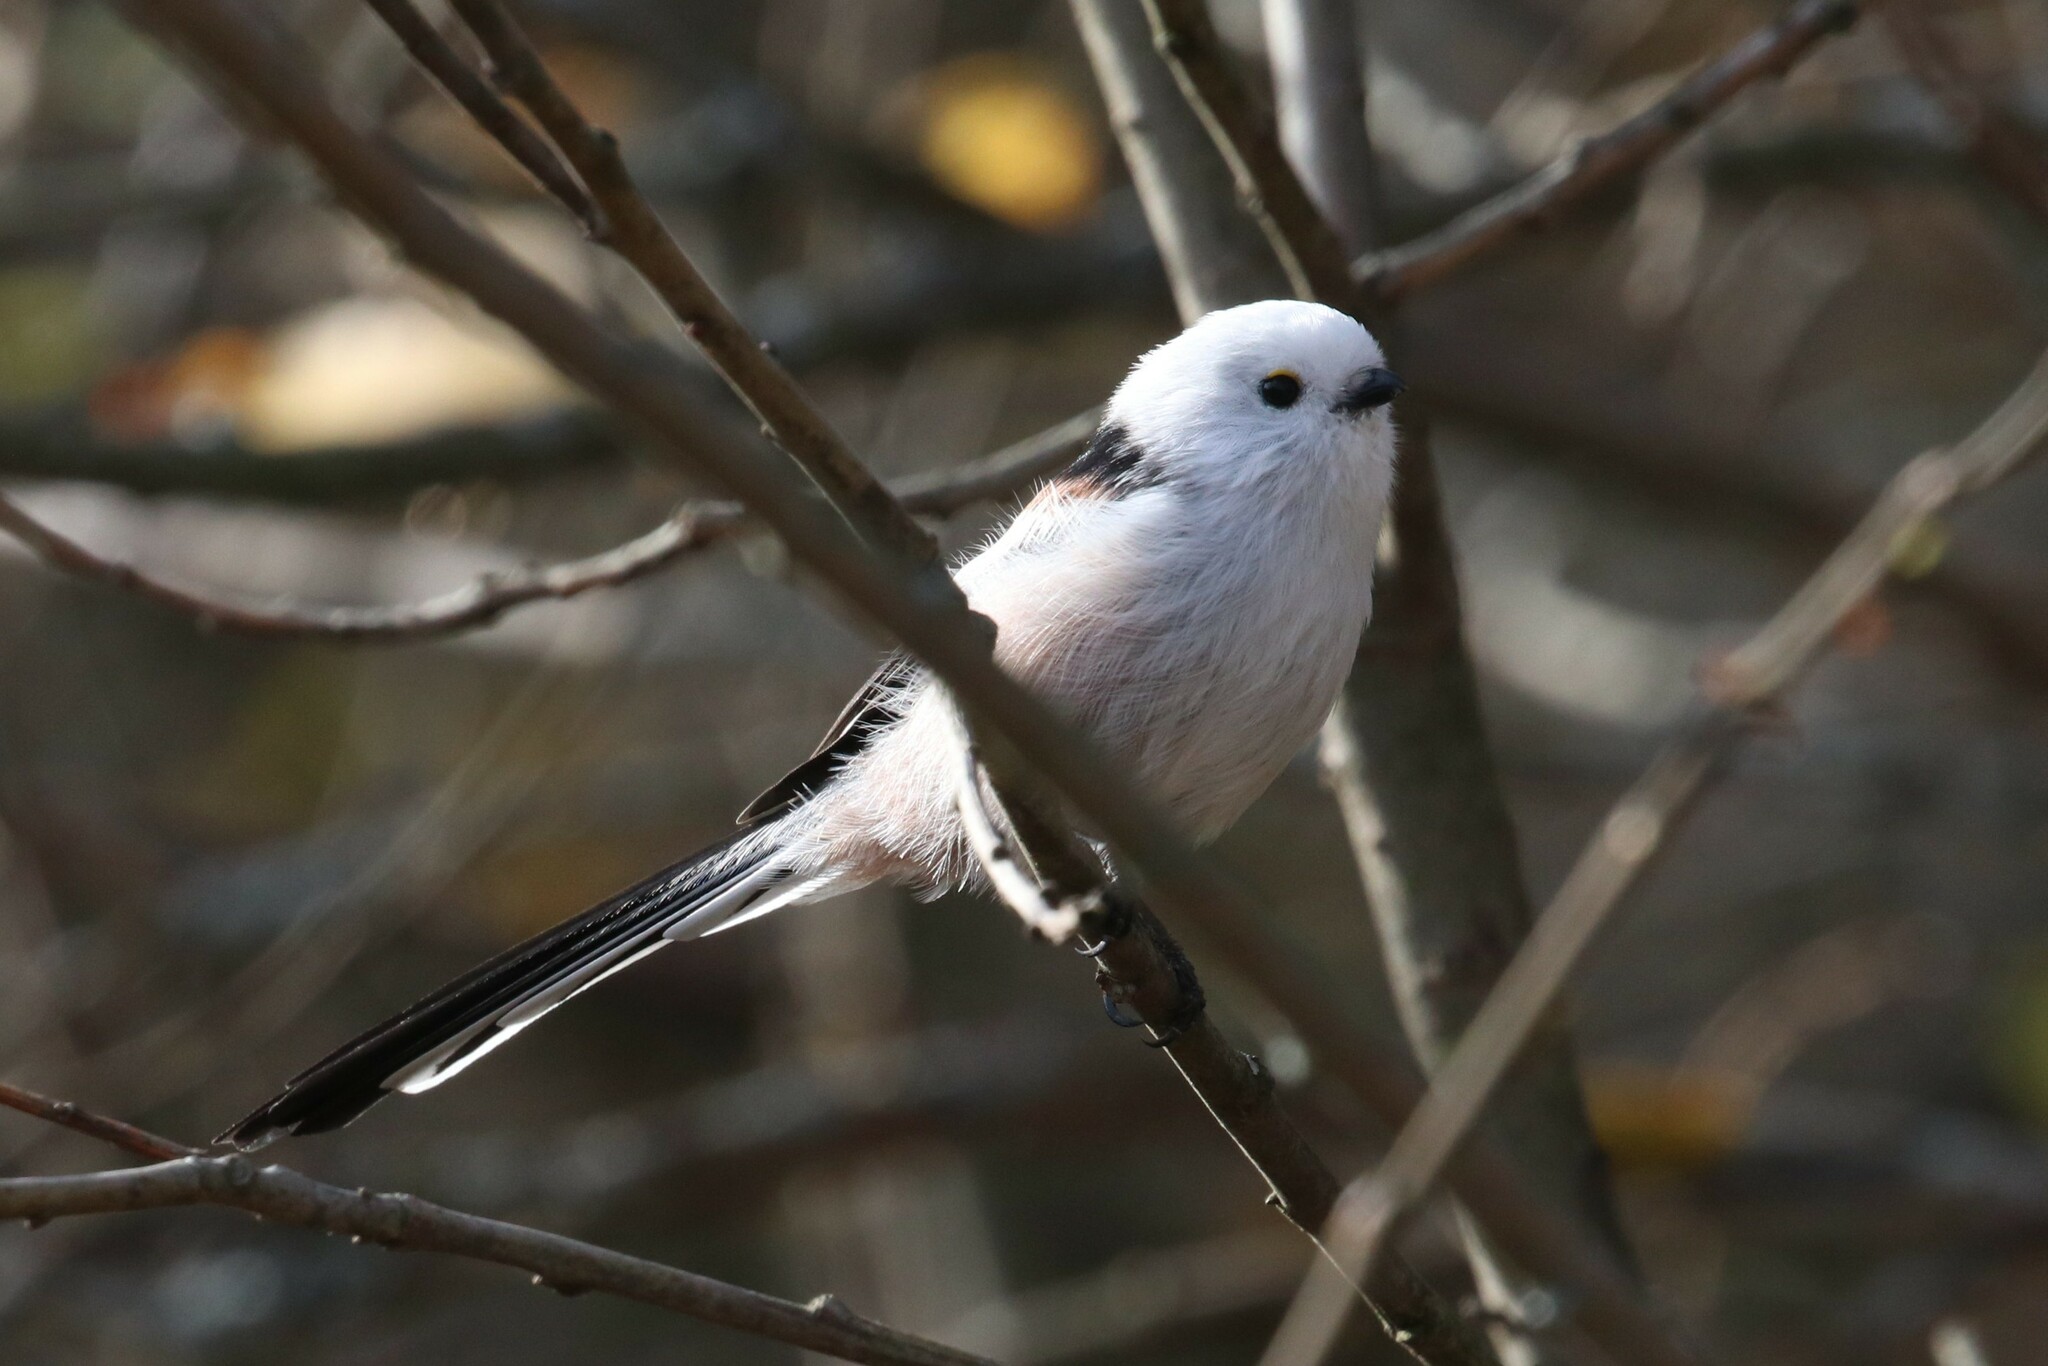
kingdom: Animalia
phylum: Chordata
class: Aves
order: Passeriformes
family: Aegithalidae
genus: Aegithalos
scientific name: Aegithalos caudatus
